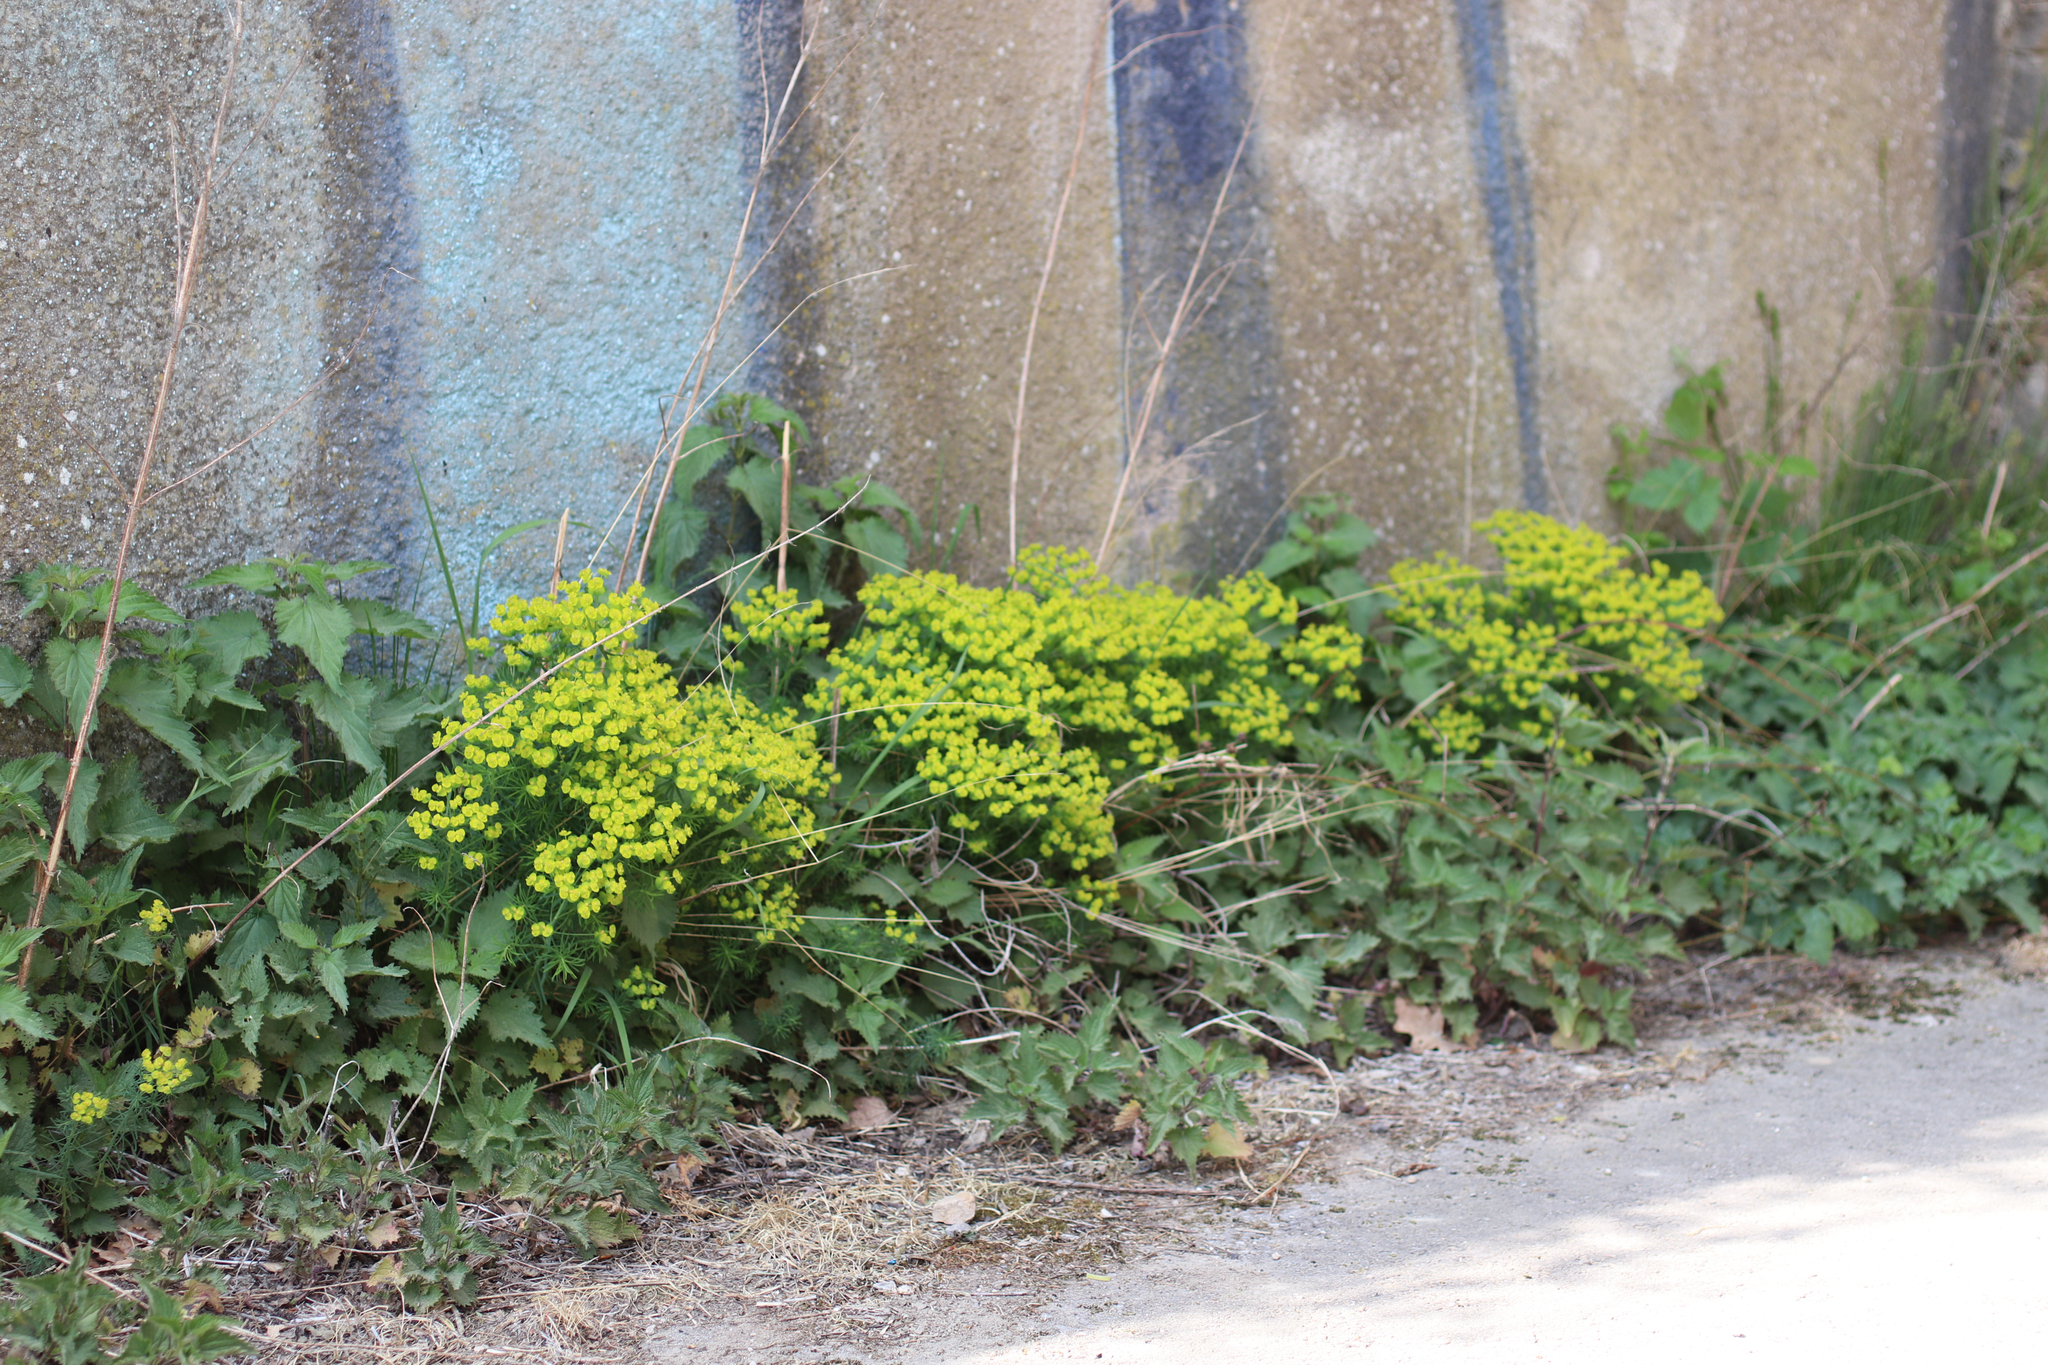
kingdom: Plantae
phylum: Tracheophyta
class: Magnoliopsida
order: Malpighiales
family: Euphorbiaceae
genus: Euphorbia
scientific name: Euphorbia cyparissias
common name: Cypress spurge
